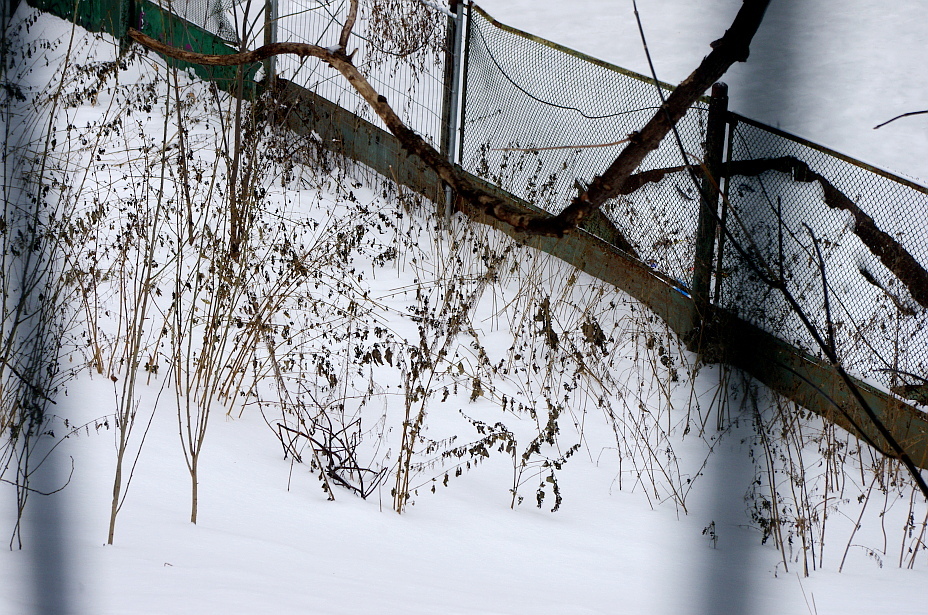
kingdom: Plantae
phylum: Tracheophyta
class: Magnoliopsida
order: Rosales
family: Urticaceae
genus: Urtica
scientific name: Urtica dioica
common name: Common nettle
